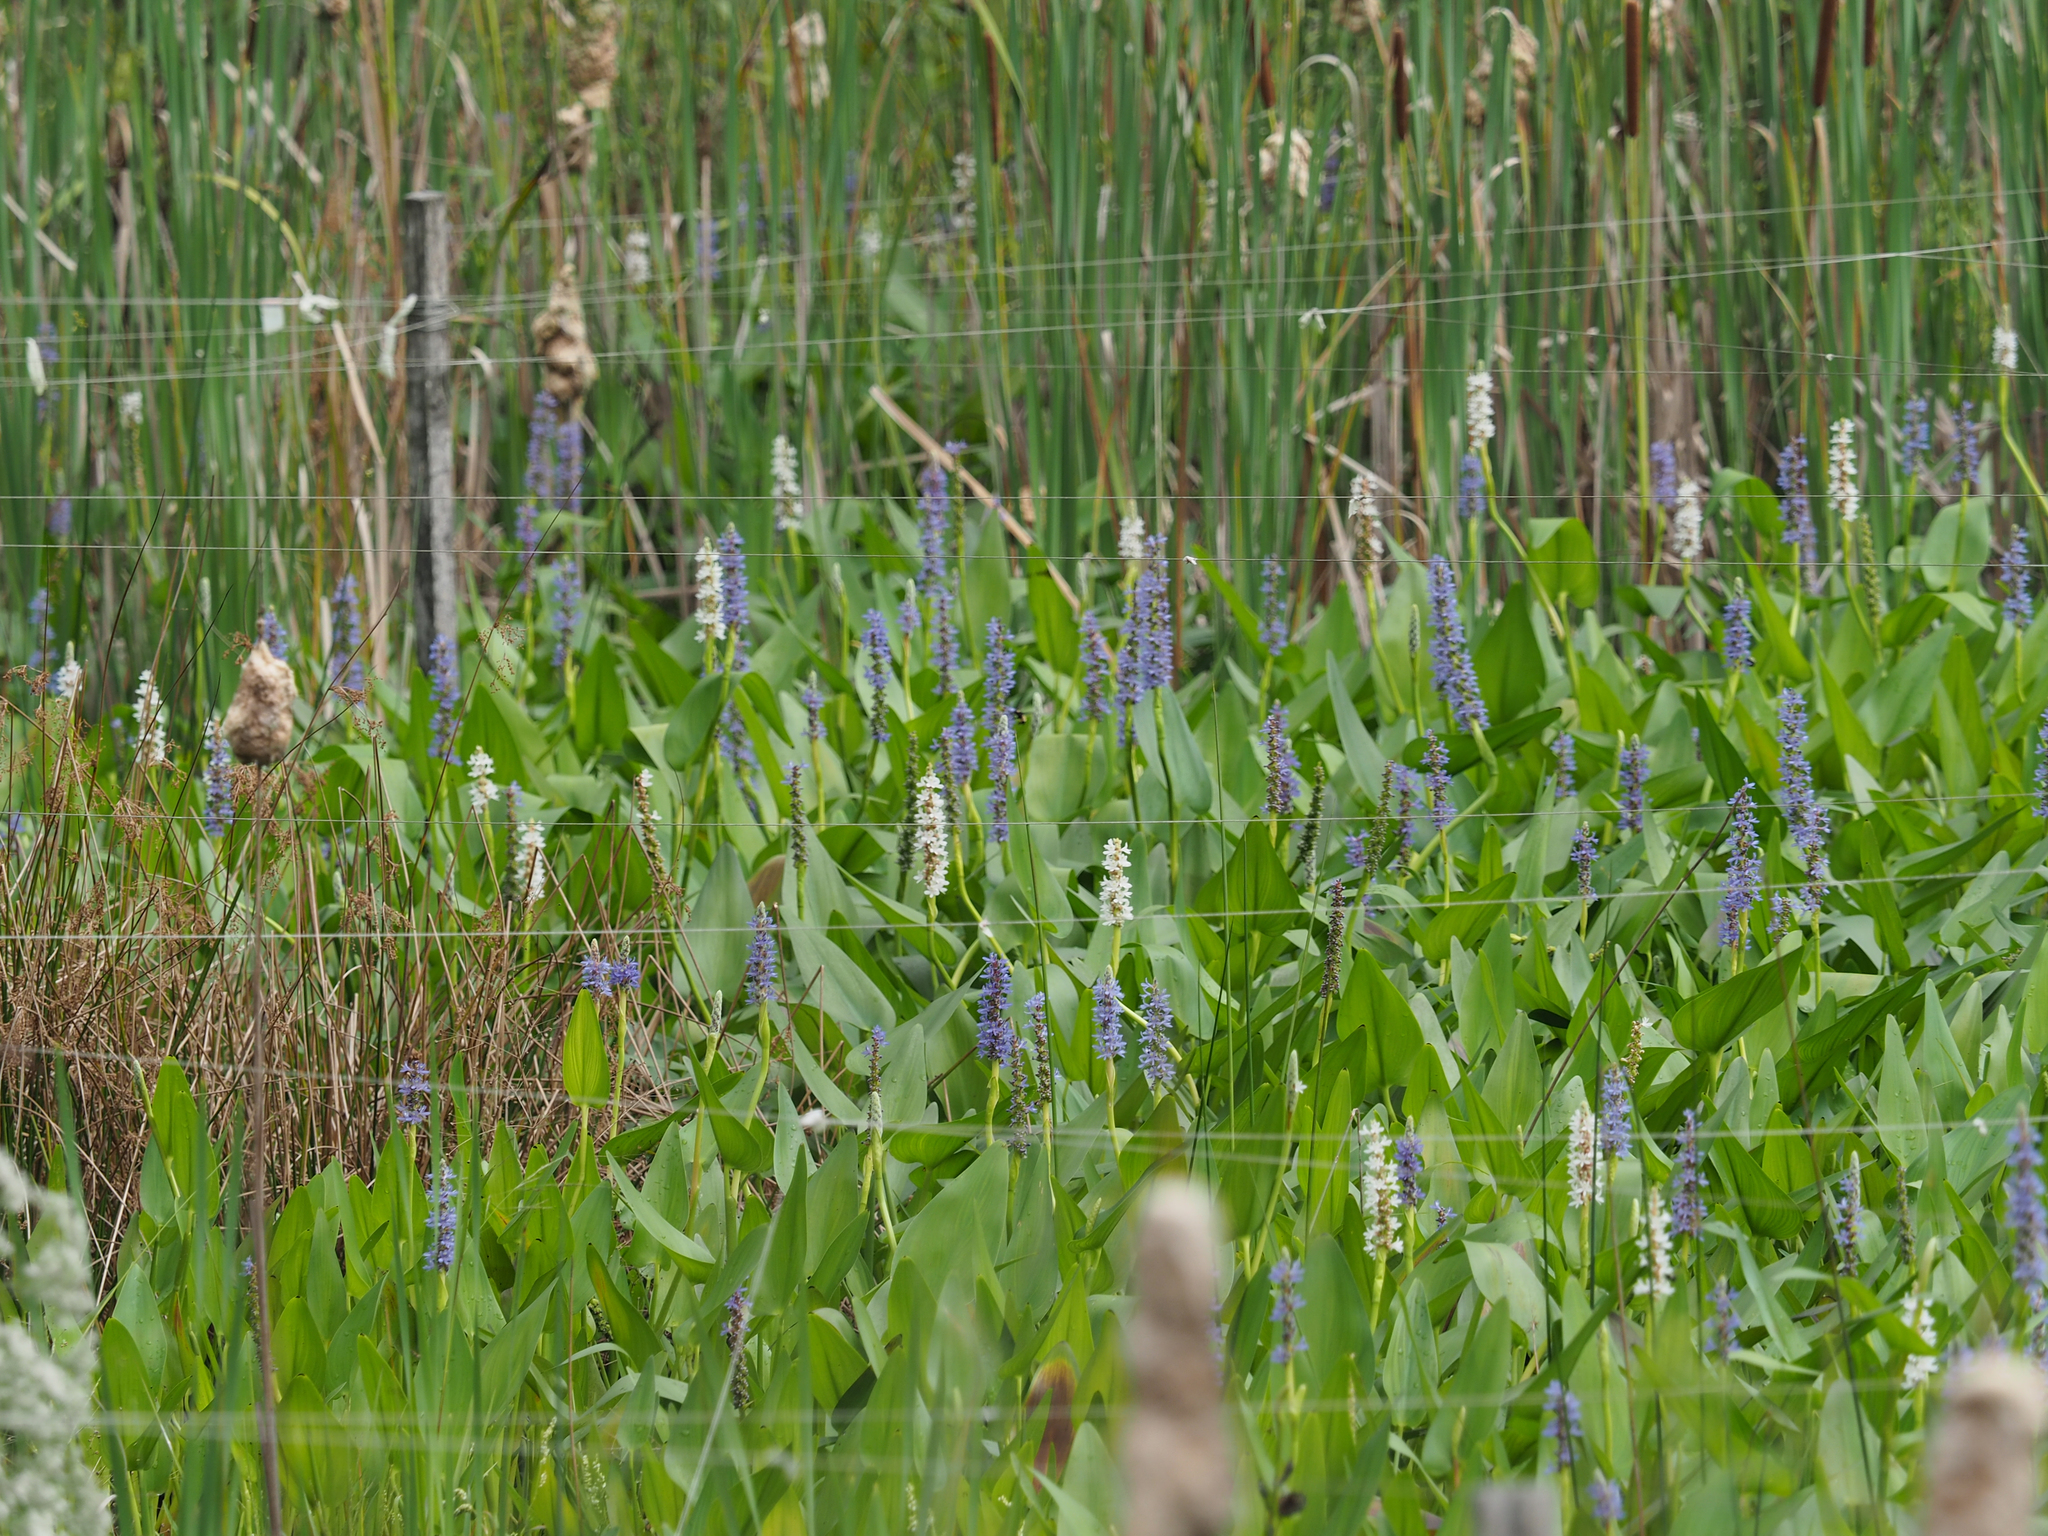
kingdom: Plantae
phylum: Tracheophyta
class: Liliopsida
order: Commelinales
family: Pontederiaceae
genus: Pontederia
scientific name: Pontederia cordata
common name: Pickerelweed
